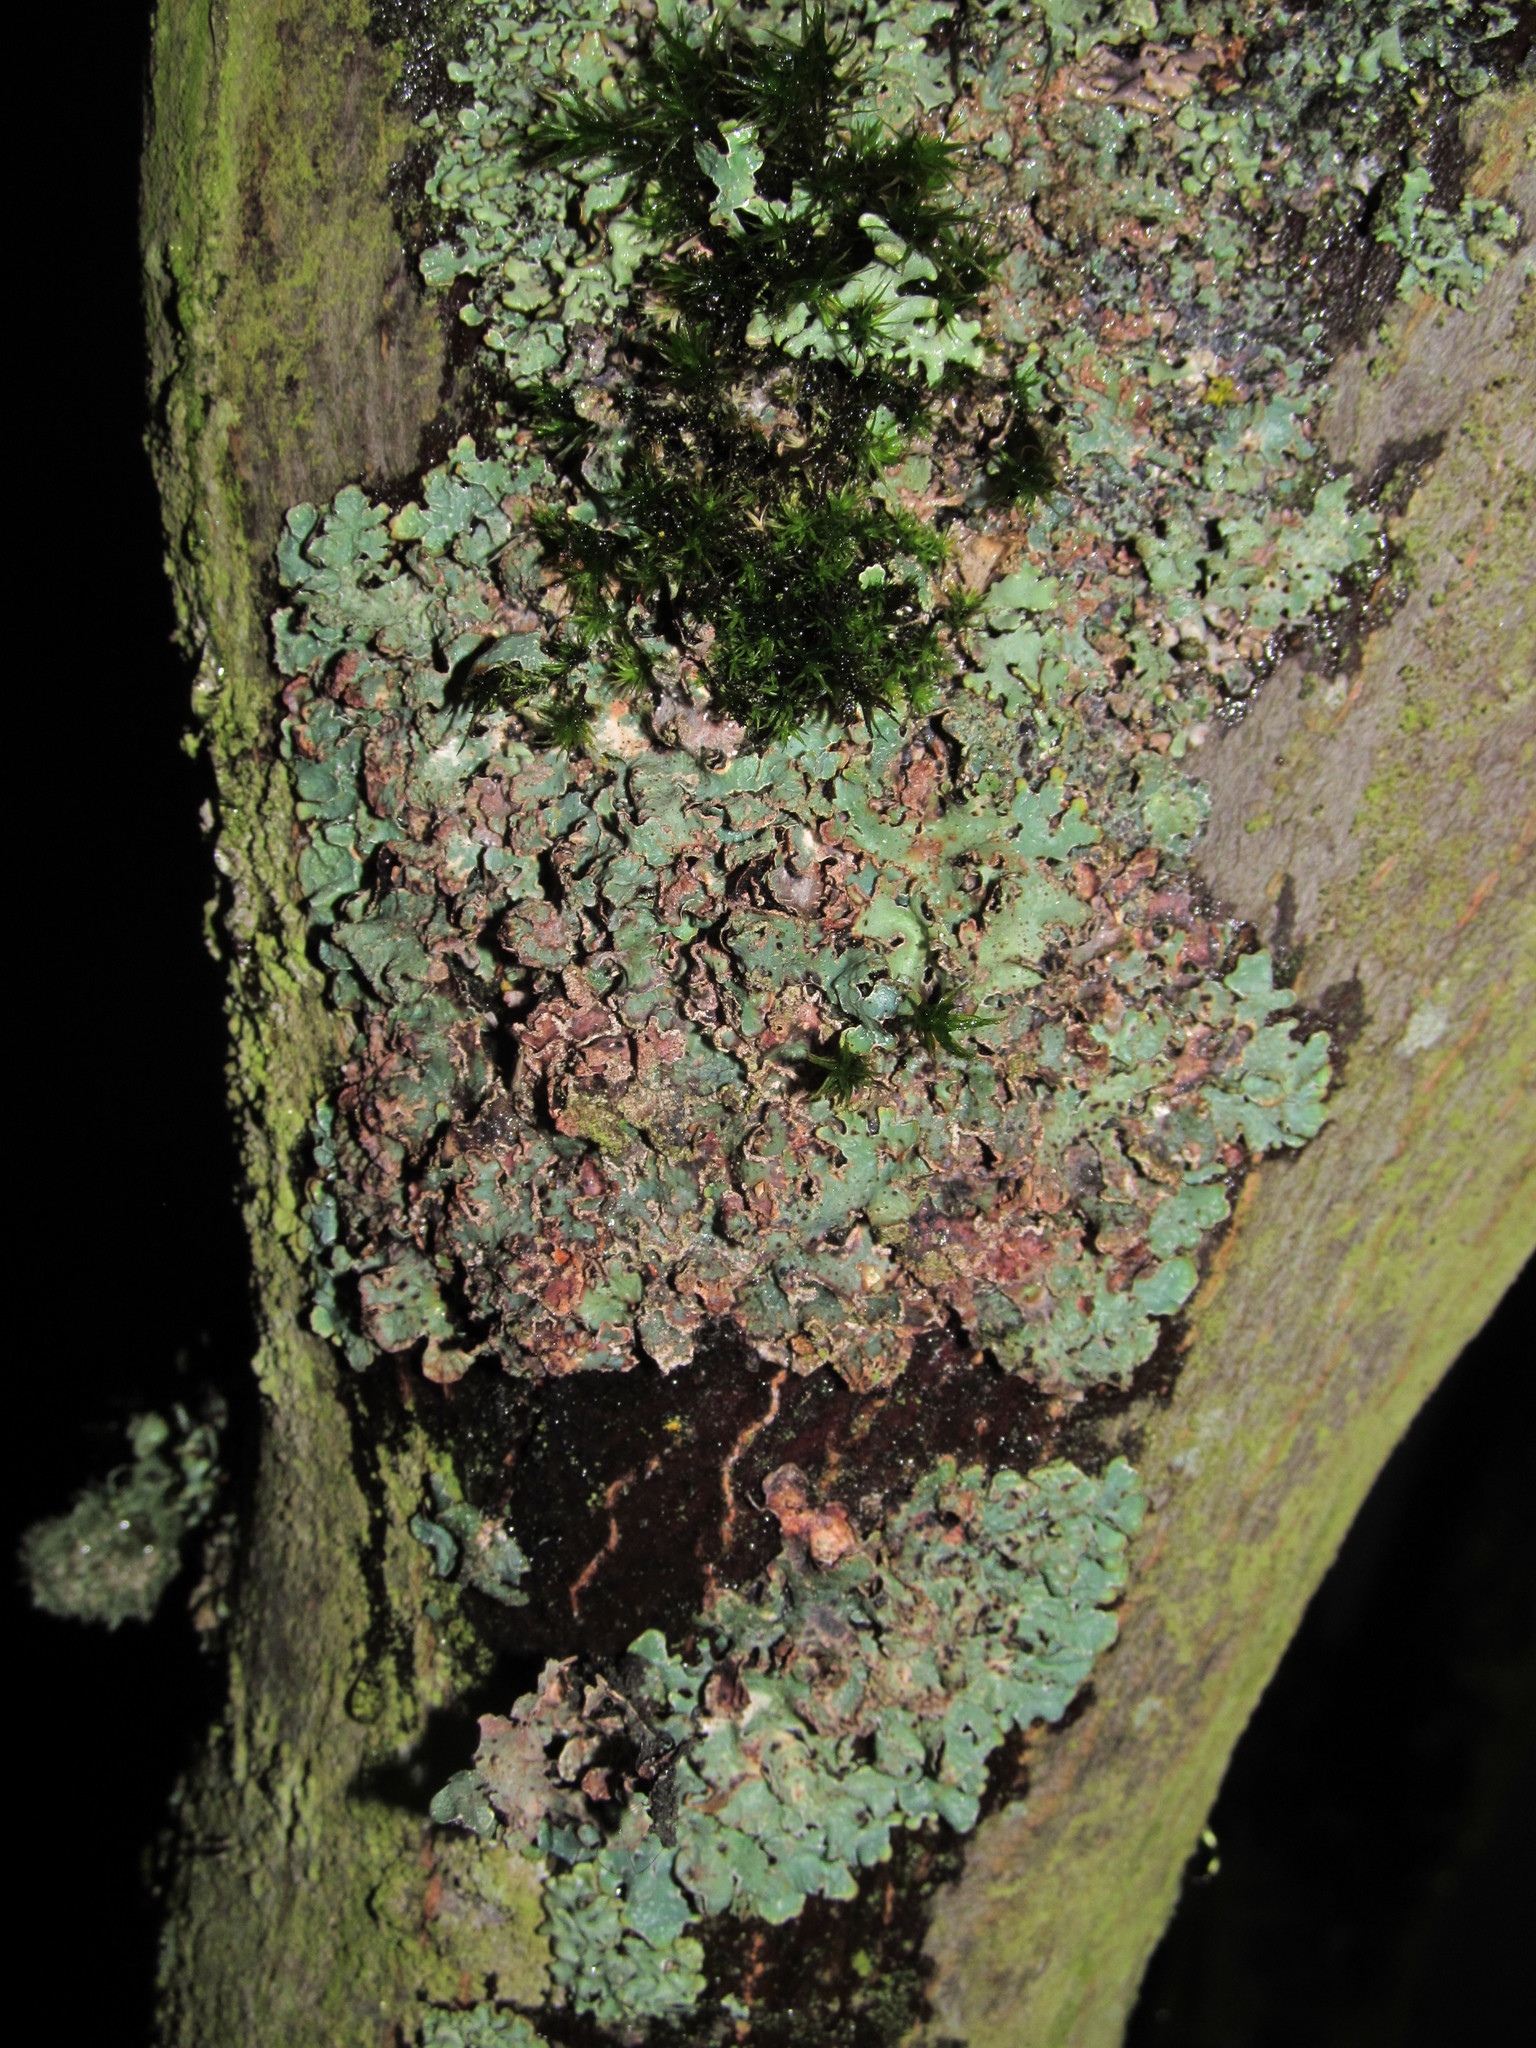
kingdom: Fungi
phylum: Ascomycota
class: Lecanoromycetes
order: Lecanorales
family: Parmeliaceae
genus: Parmelia
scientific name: Parmelia sulcata
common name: Netted shield lichen
